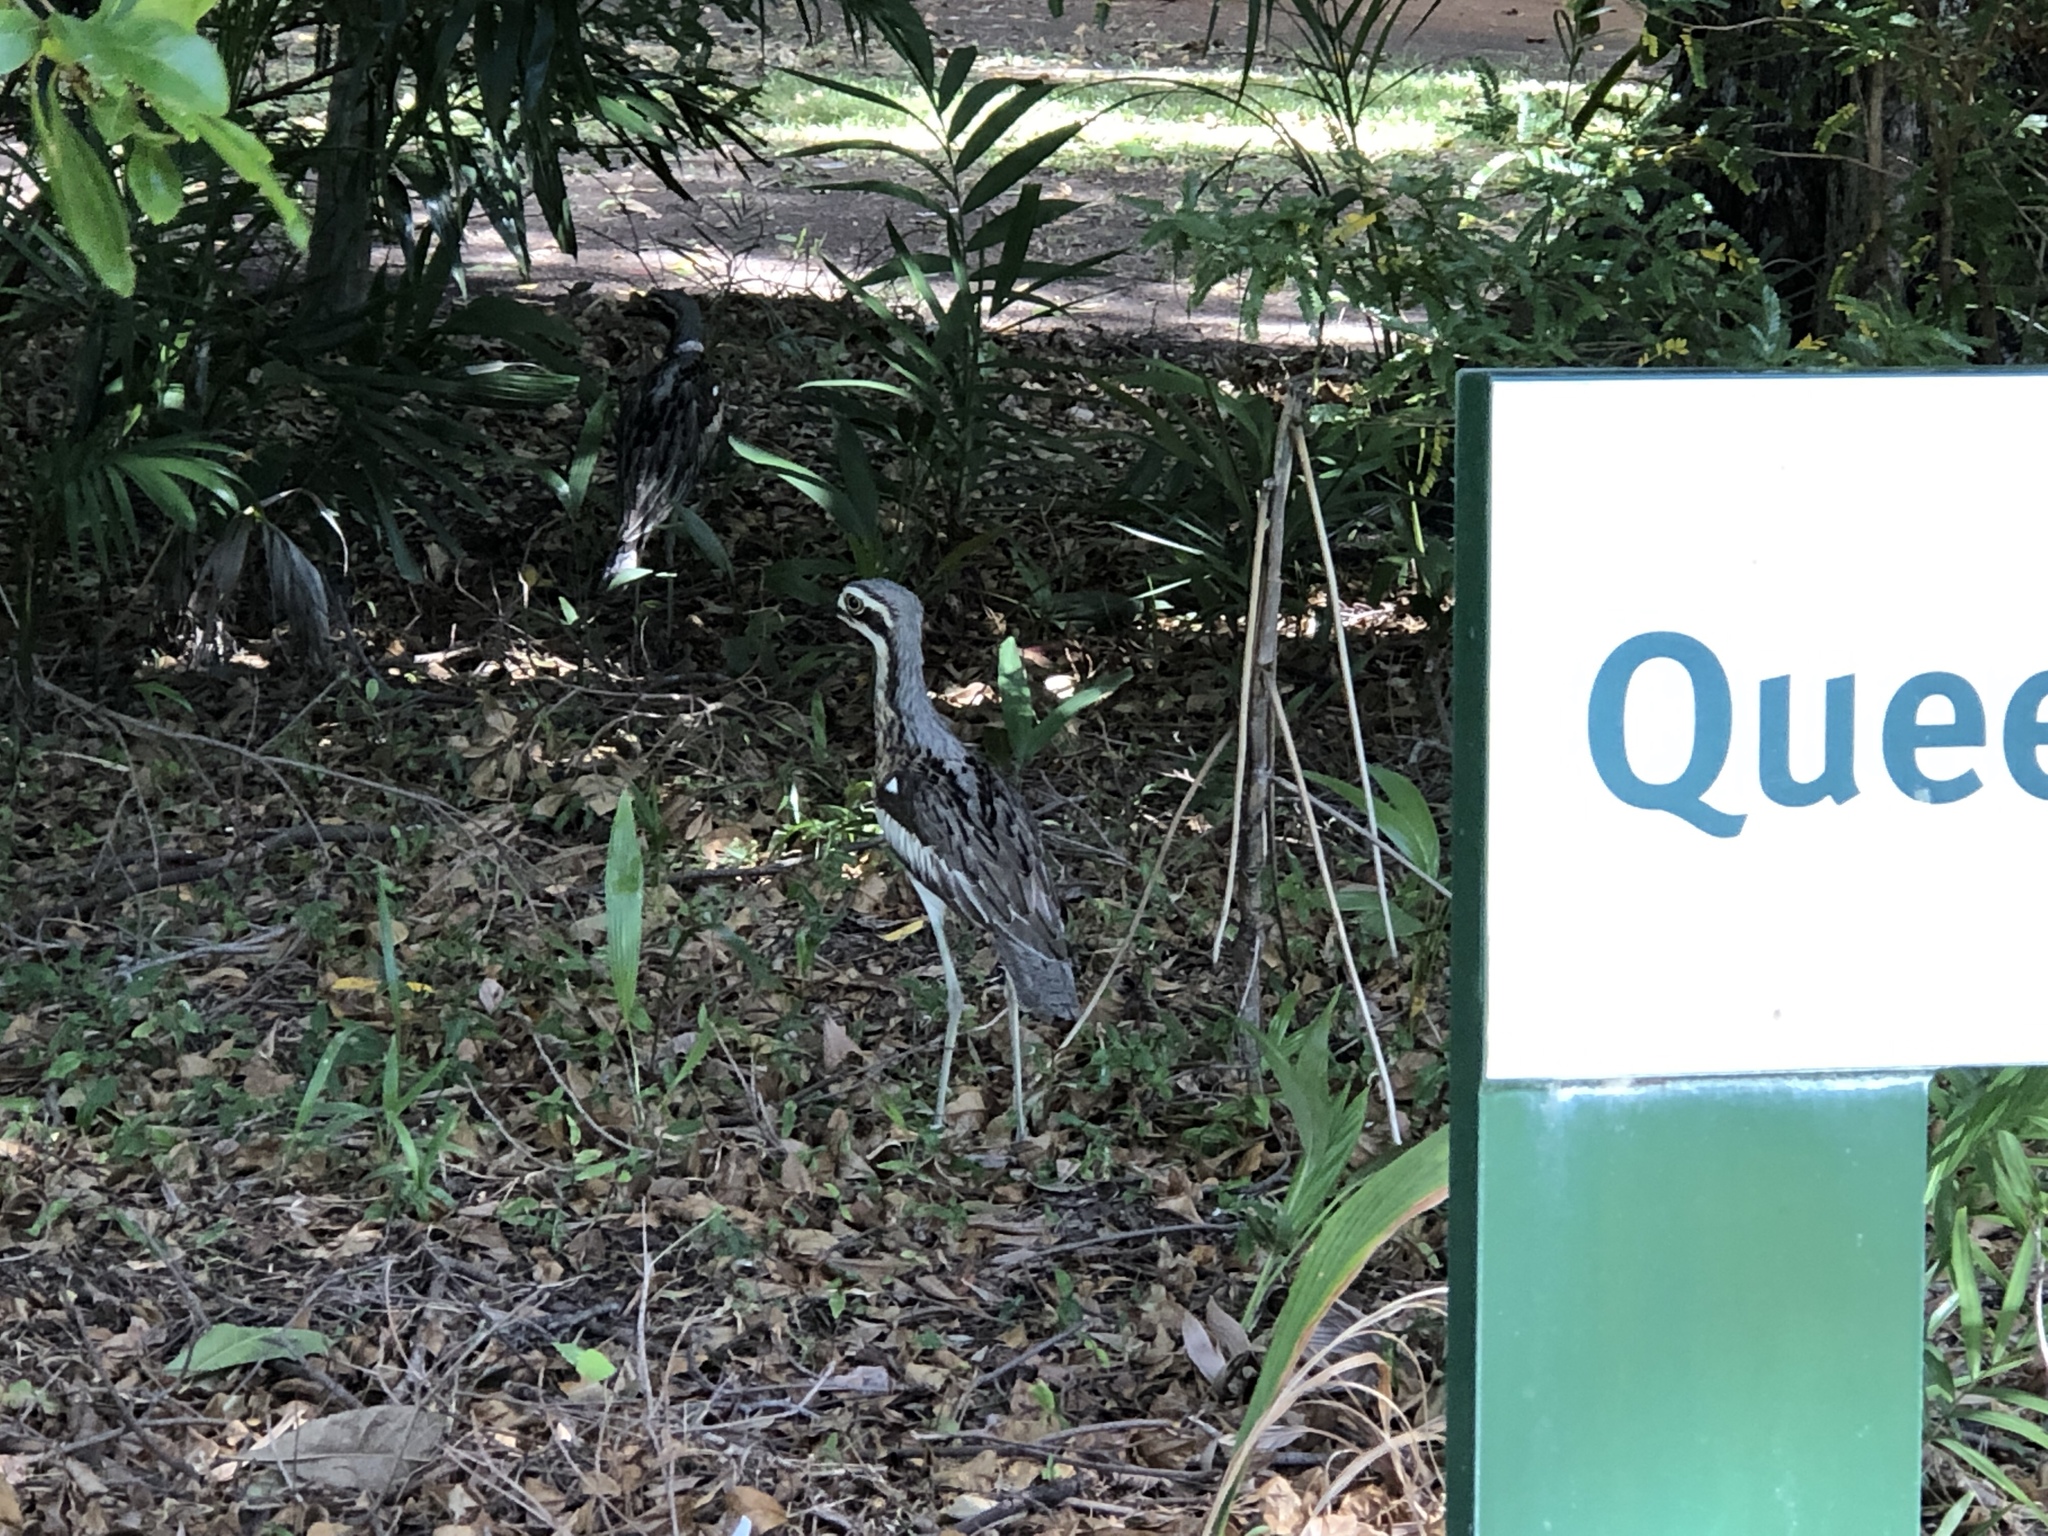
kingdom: Animalia
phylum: Chordata
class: Aves
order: Charadriiformes
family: Burhinidae
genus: Burhinus
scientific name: Burhinus grallarius
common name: Bush stone-curlew
